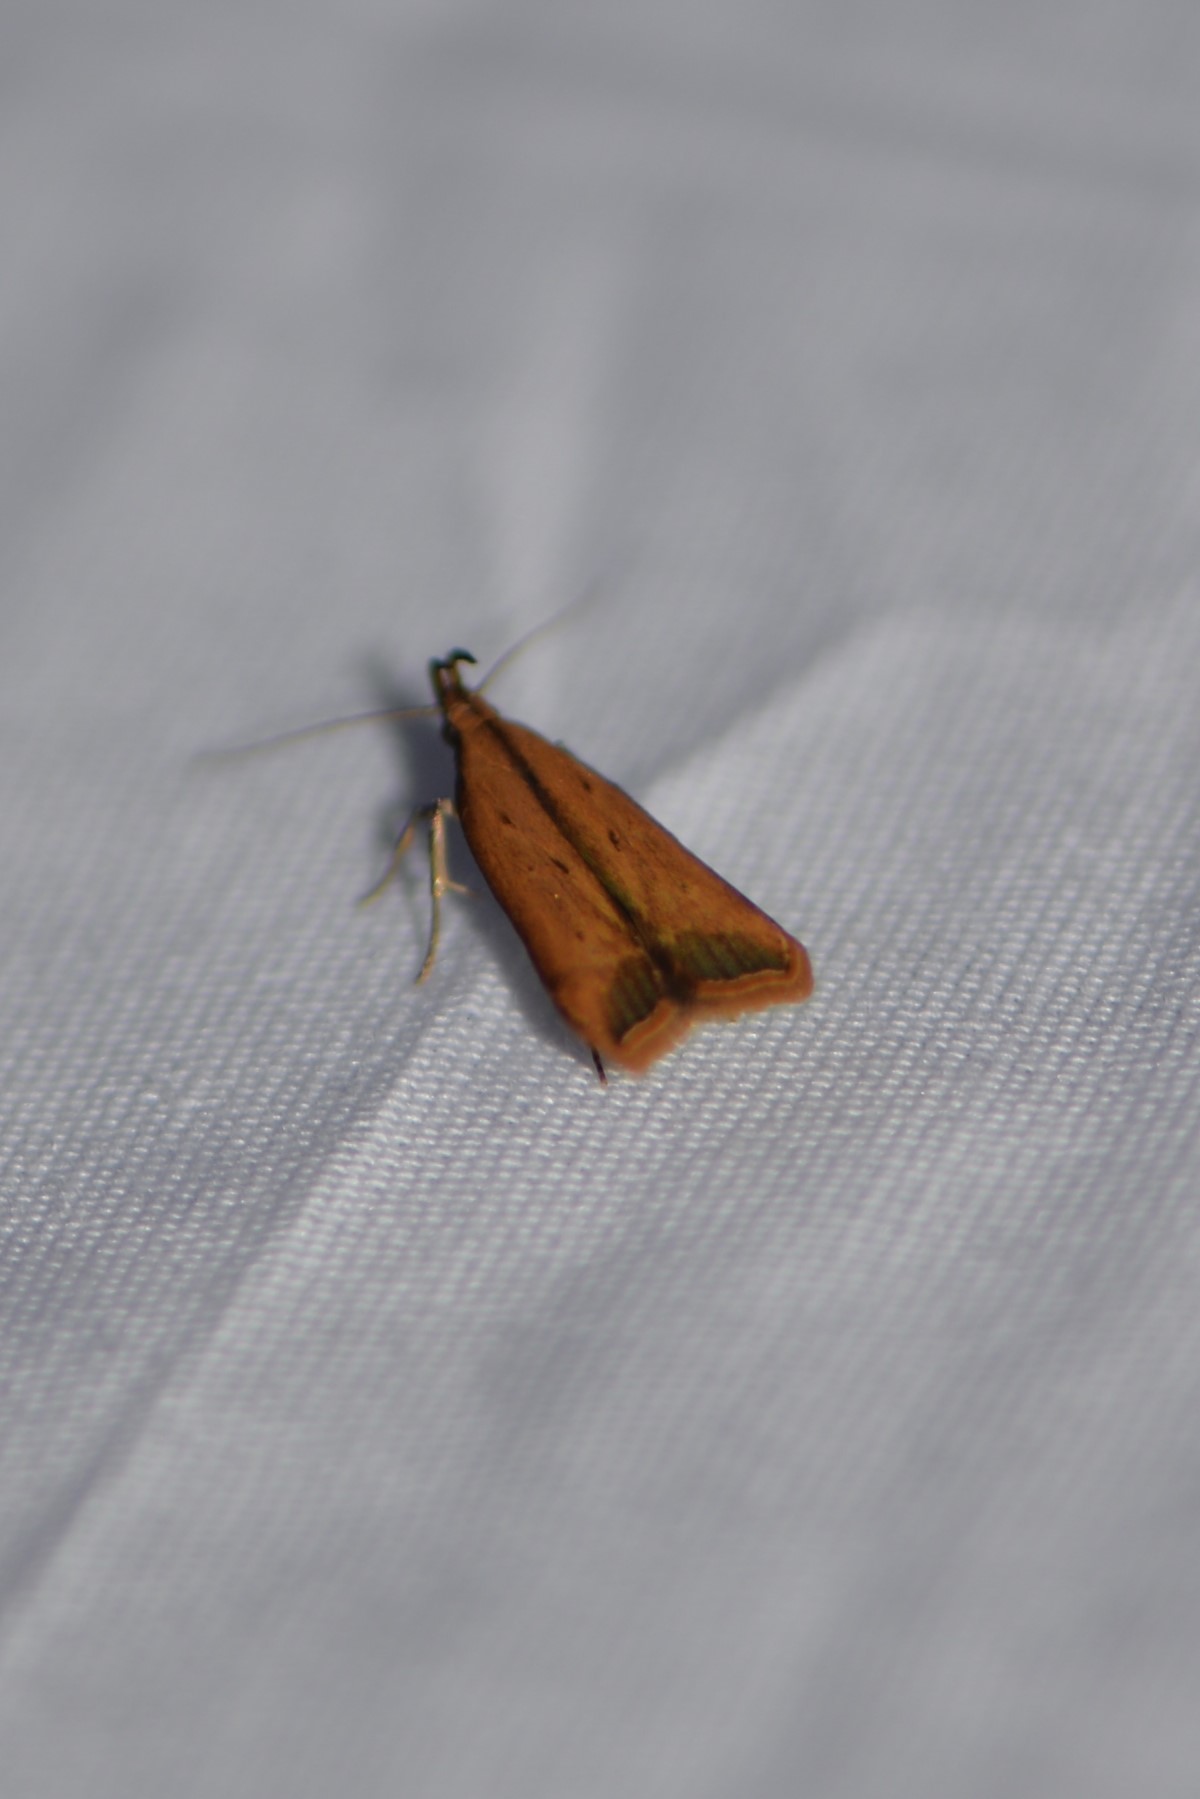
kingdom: Animalia
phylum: Arthropoda
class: Insecta
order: Lepidoptera
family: Gelechiidae
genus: Dichomeris
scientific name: Dichomeris heriguronis
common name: Black-edged dichomeris moth
